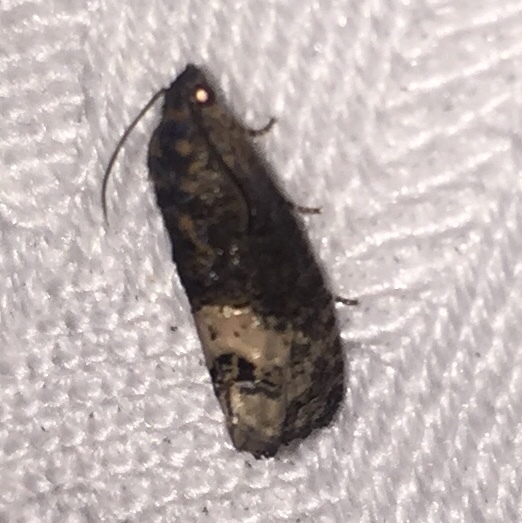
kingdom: Animalia
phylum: Arthropoda
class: Insecta
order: Lepidoptera
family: Tortricidae
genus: Ecdytolopha
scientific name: Ecdytolopha insiticiana
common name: Locust twig borer moth
